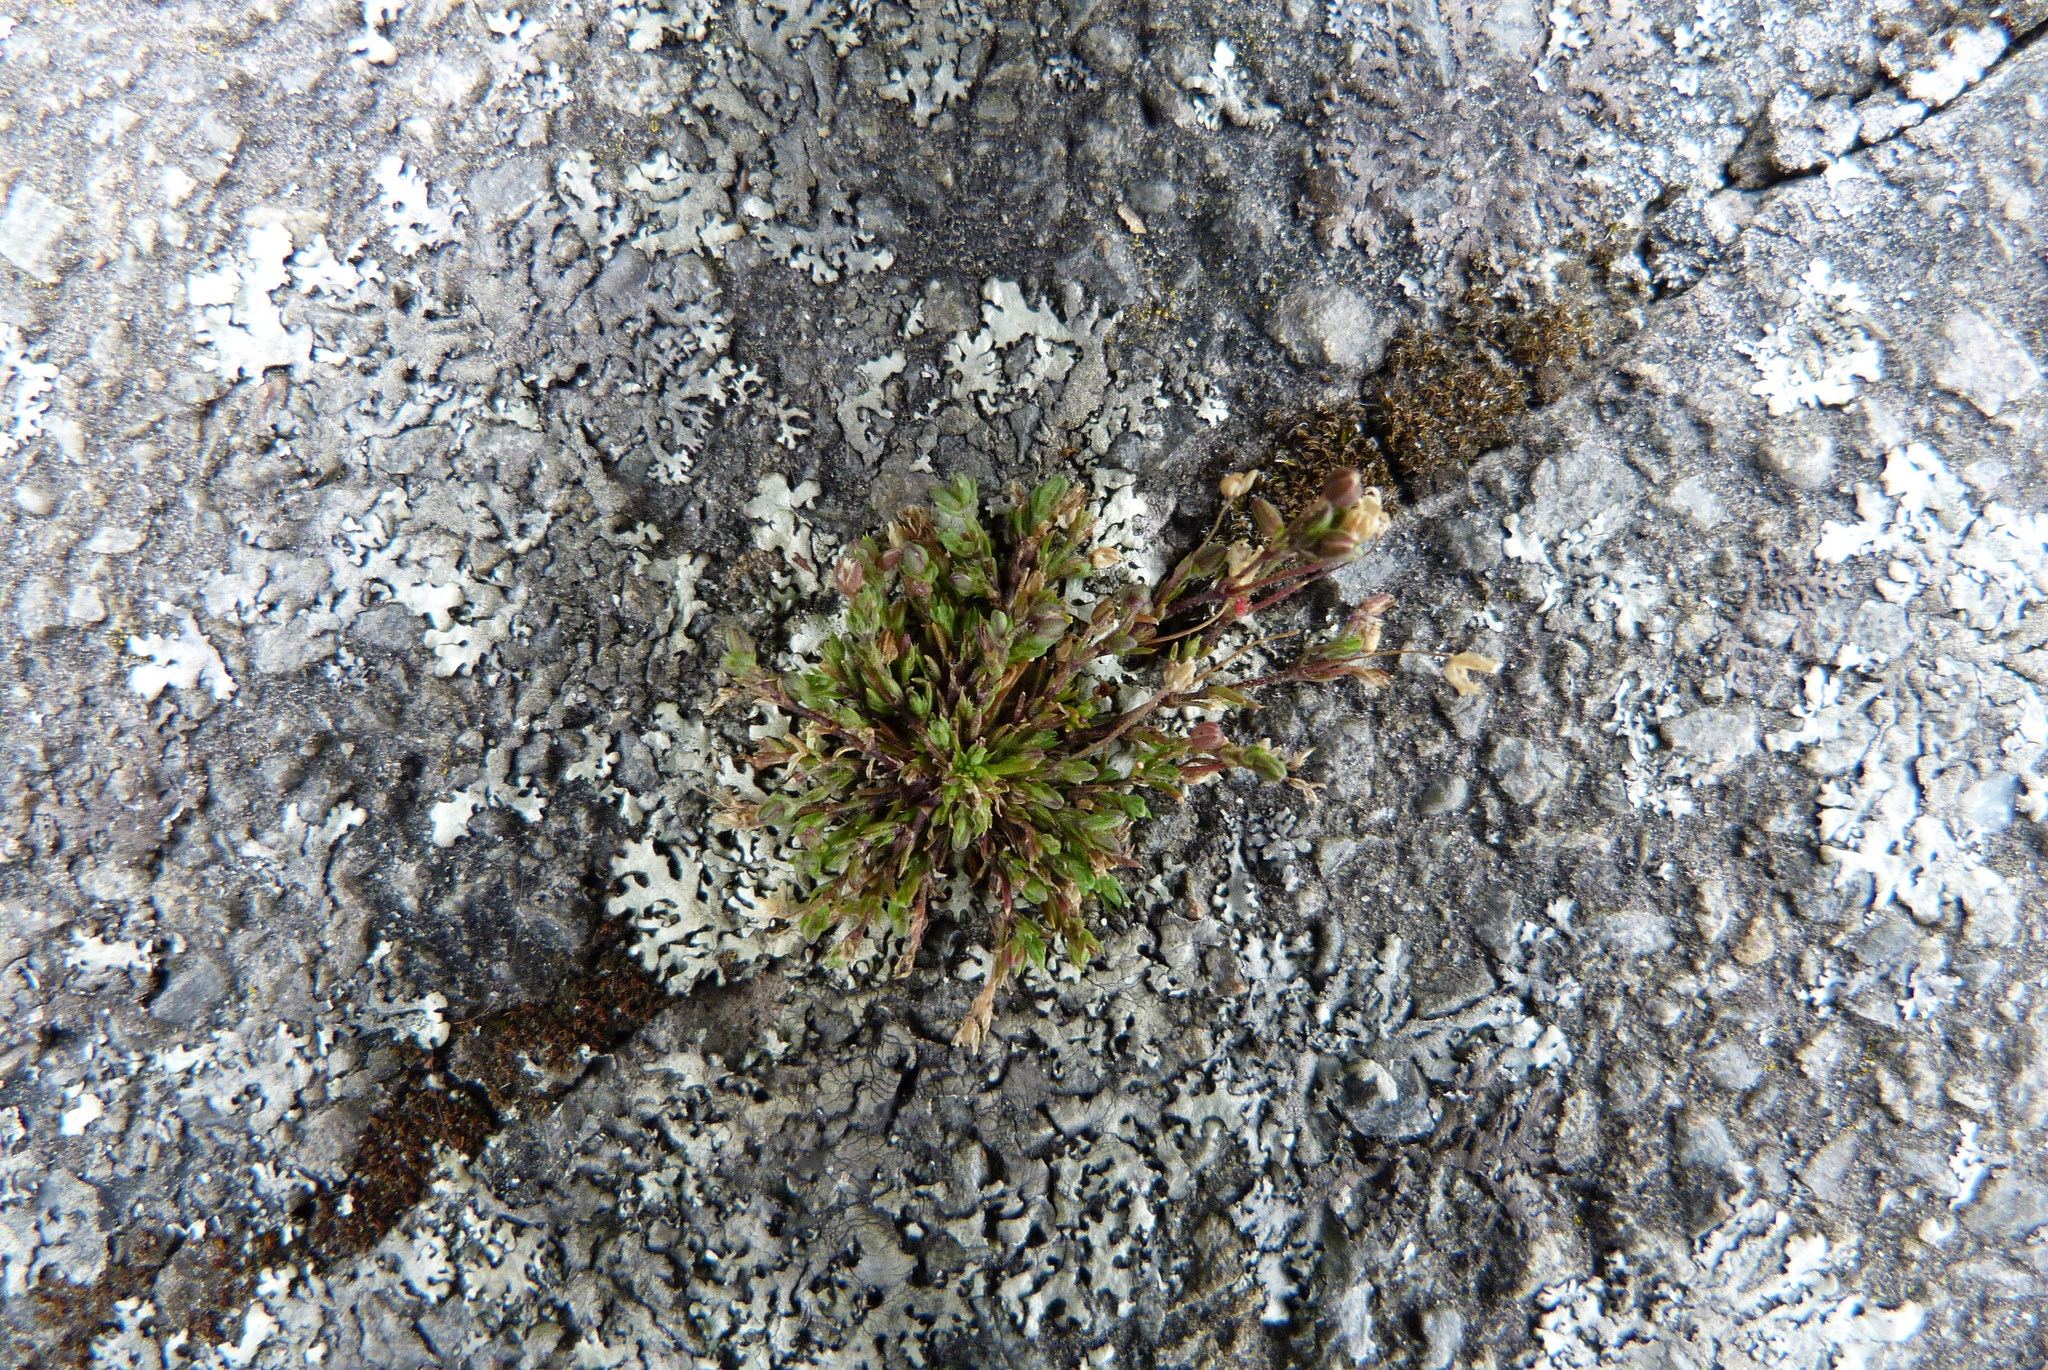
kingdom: Plantae
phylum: Tracheophyta
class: Magnoliopsida
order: Caryophyllales
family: Caryophyllaceae
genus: Sagina
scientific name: Sagina apetala
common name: Annual pearlwort
